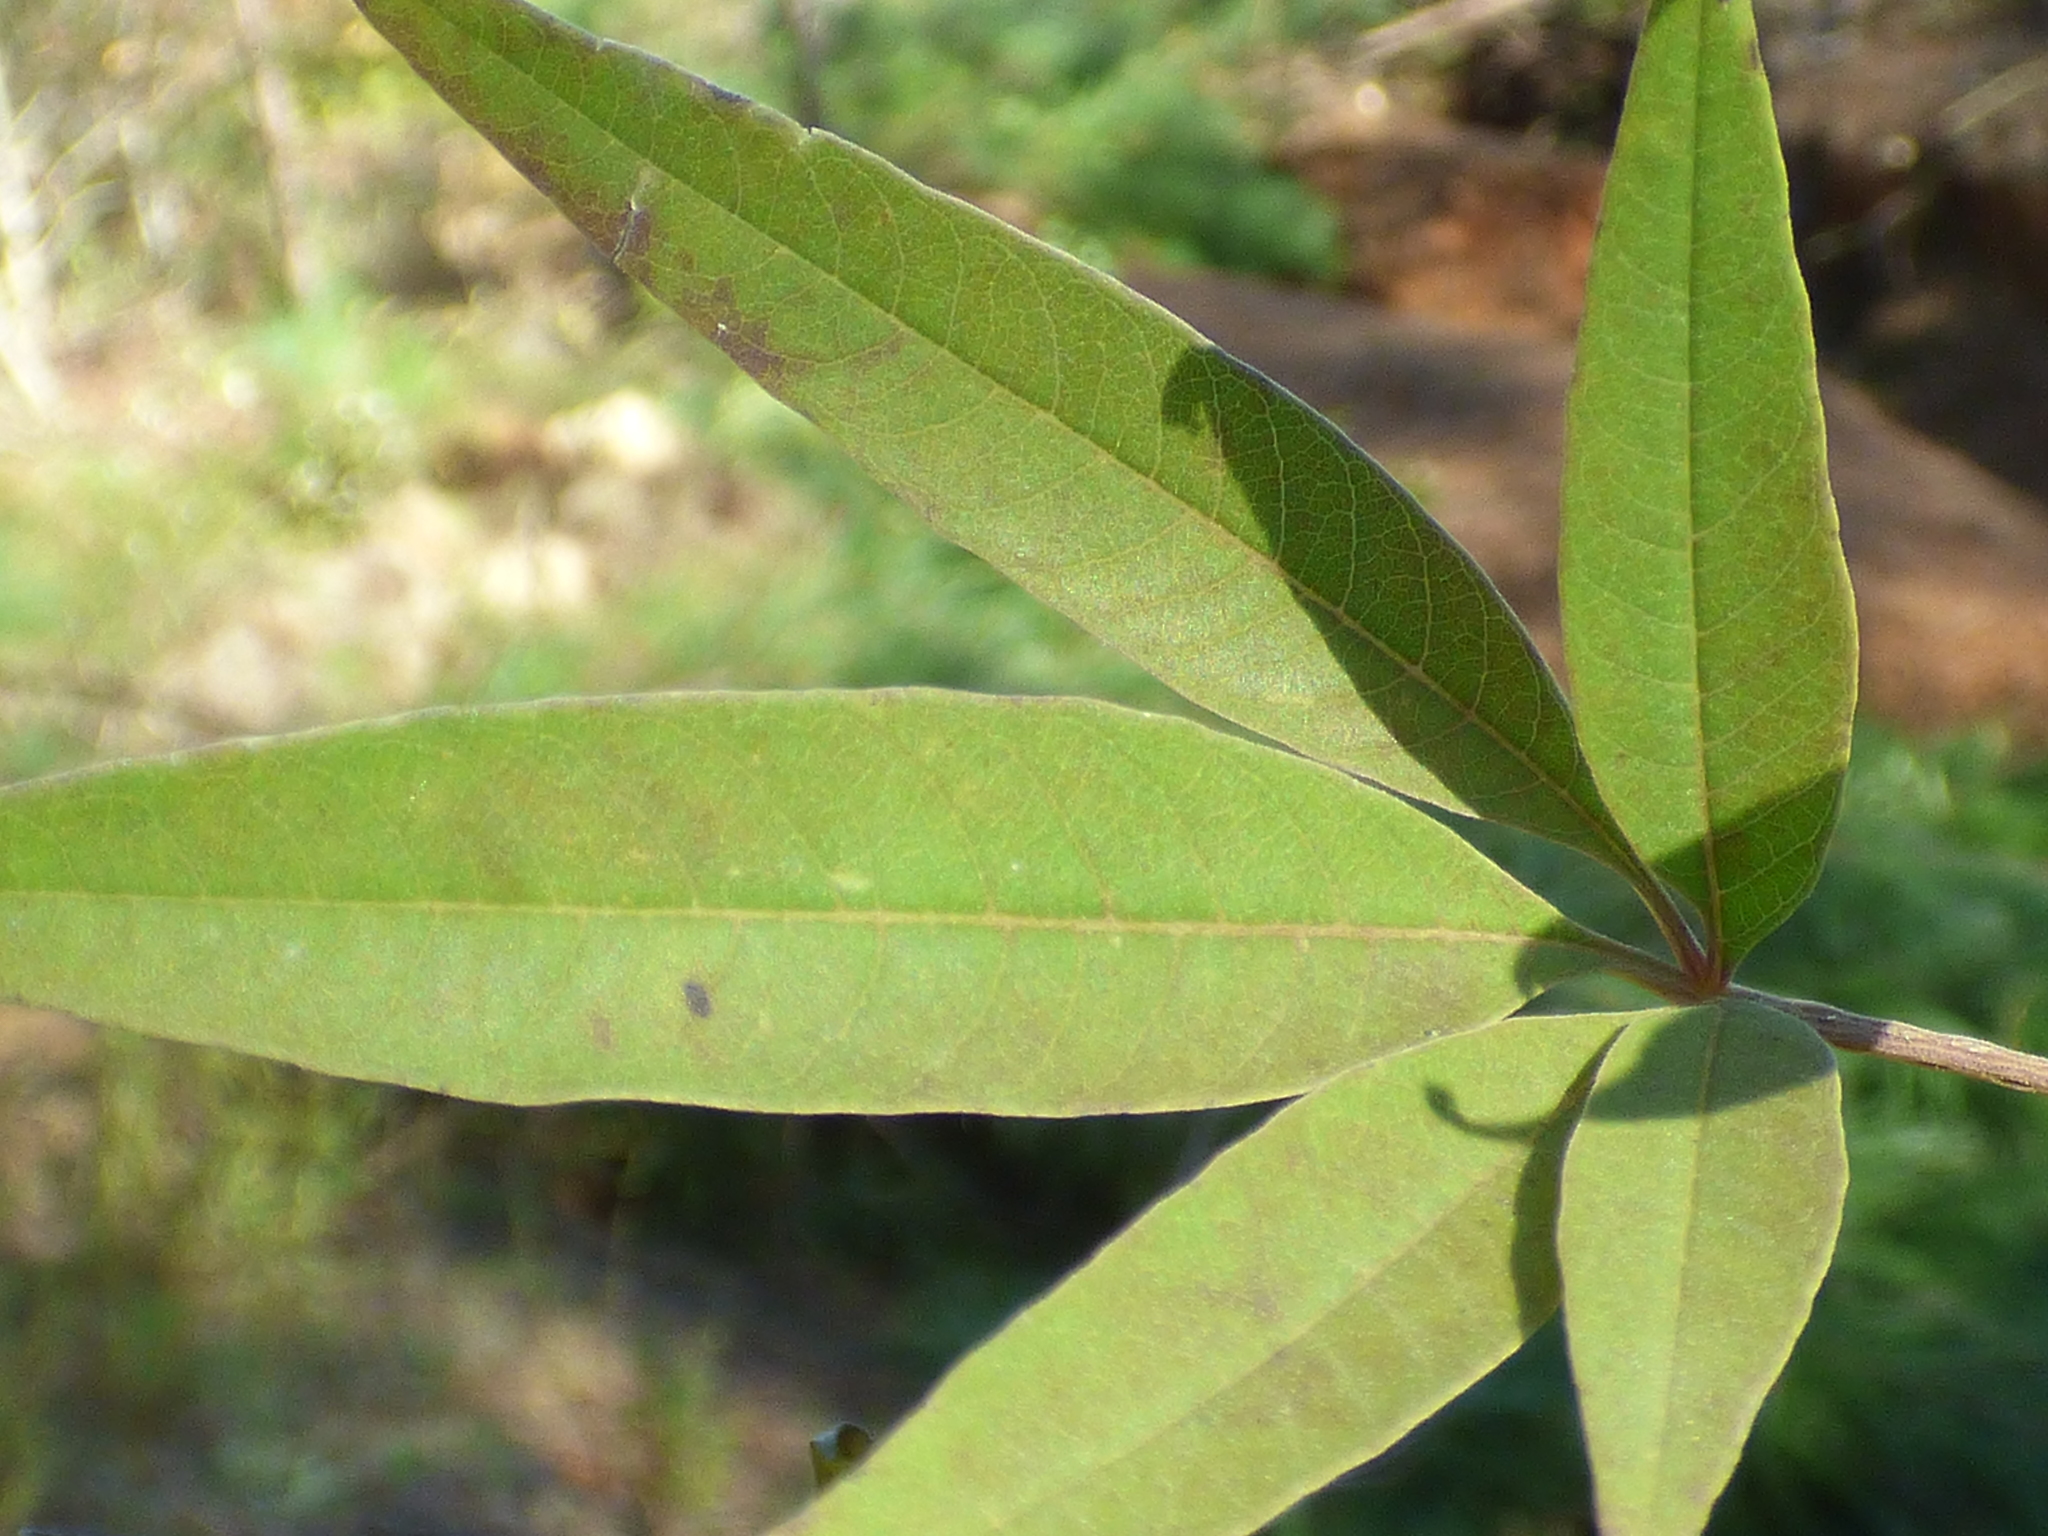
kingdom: Plantae
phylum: Tracheophyta
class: Magnoliopsida
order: Lamiales
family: Lamiaceae
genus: Vitex
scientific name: Vitex agnus-castus
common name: Chasteberry
